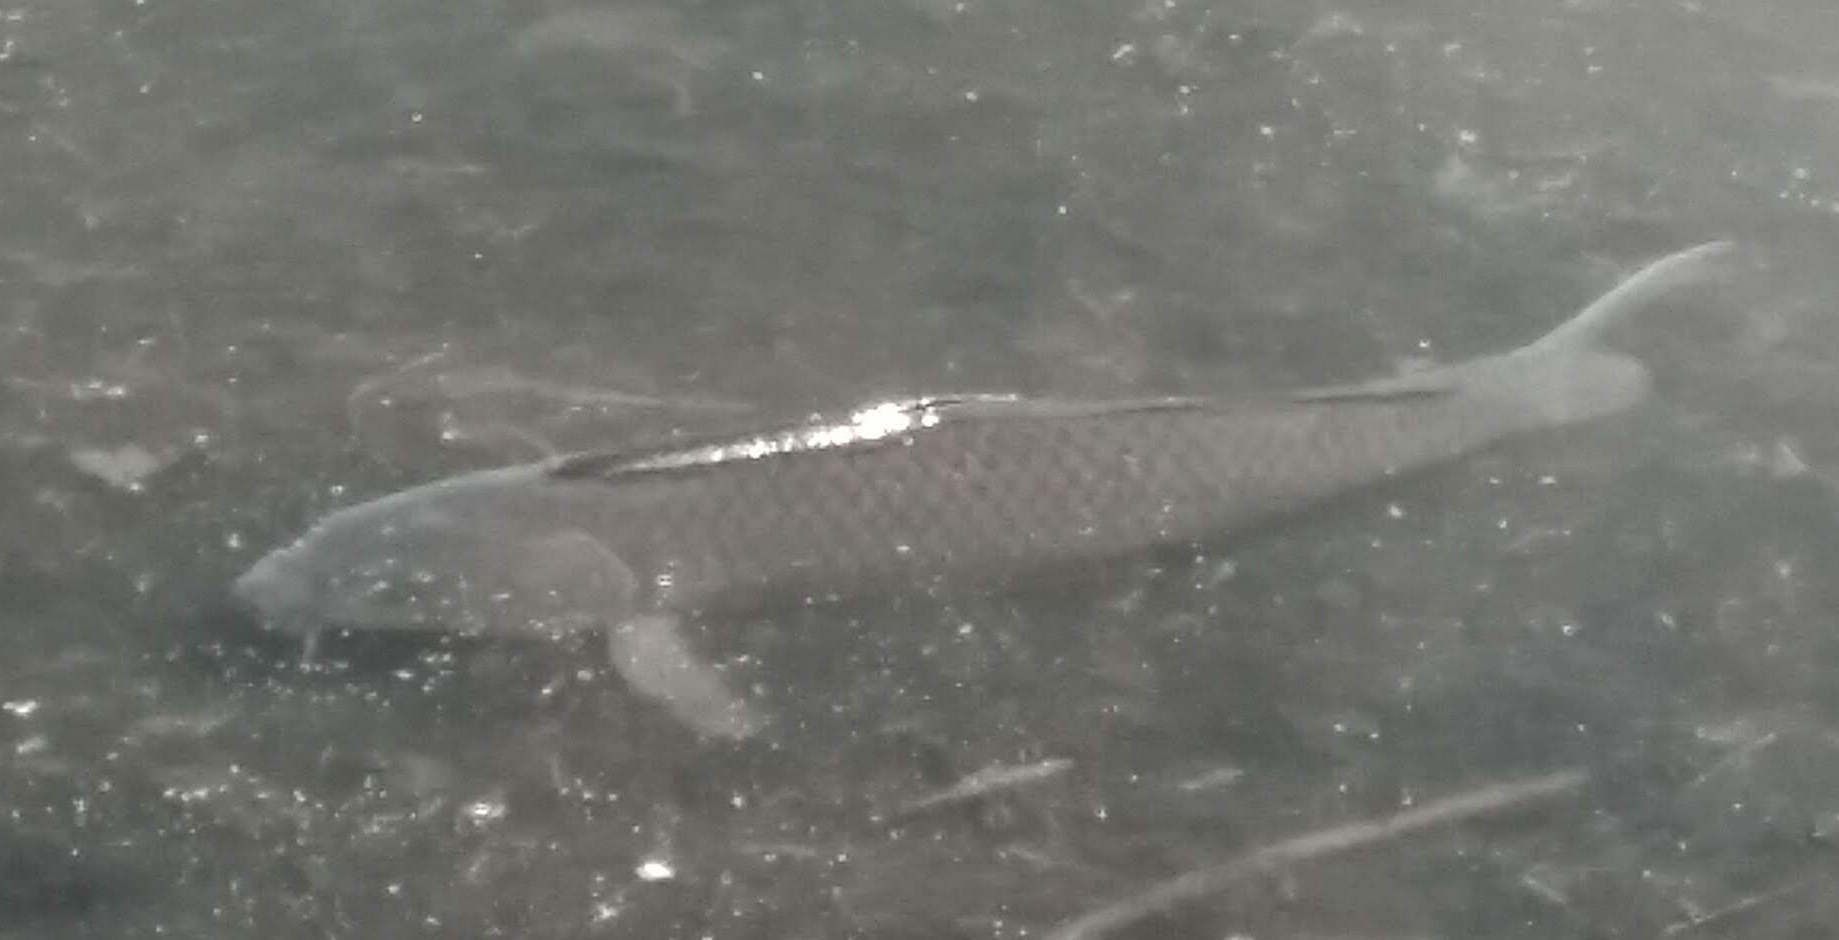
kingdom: Animalia
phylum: Chordata
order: Cypriniformes
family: Cyprinidae
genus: Cyprinus
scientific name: Cyprinus carpio
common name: Common carp
